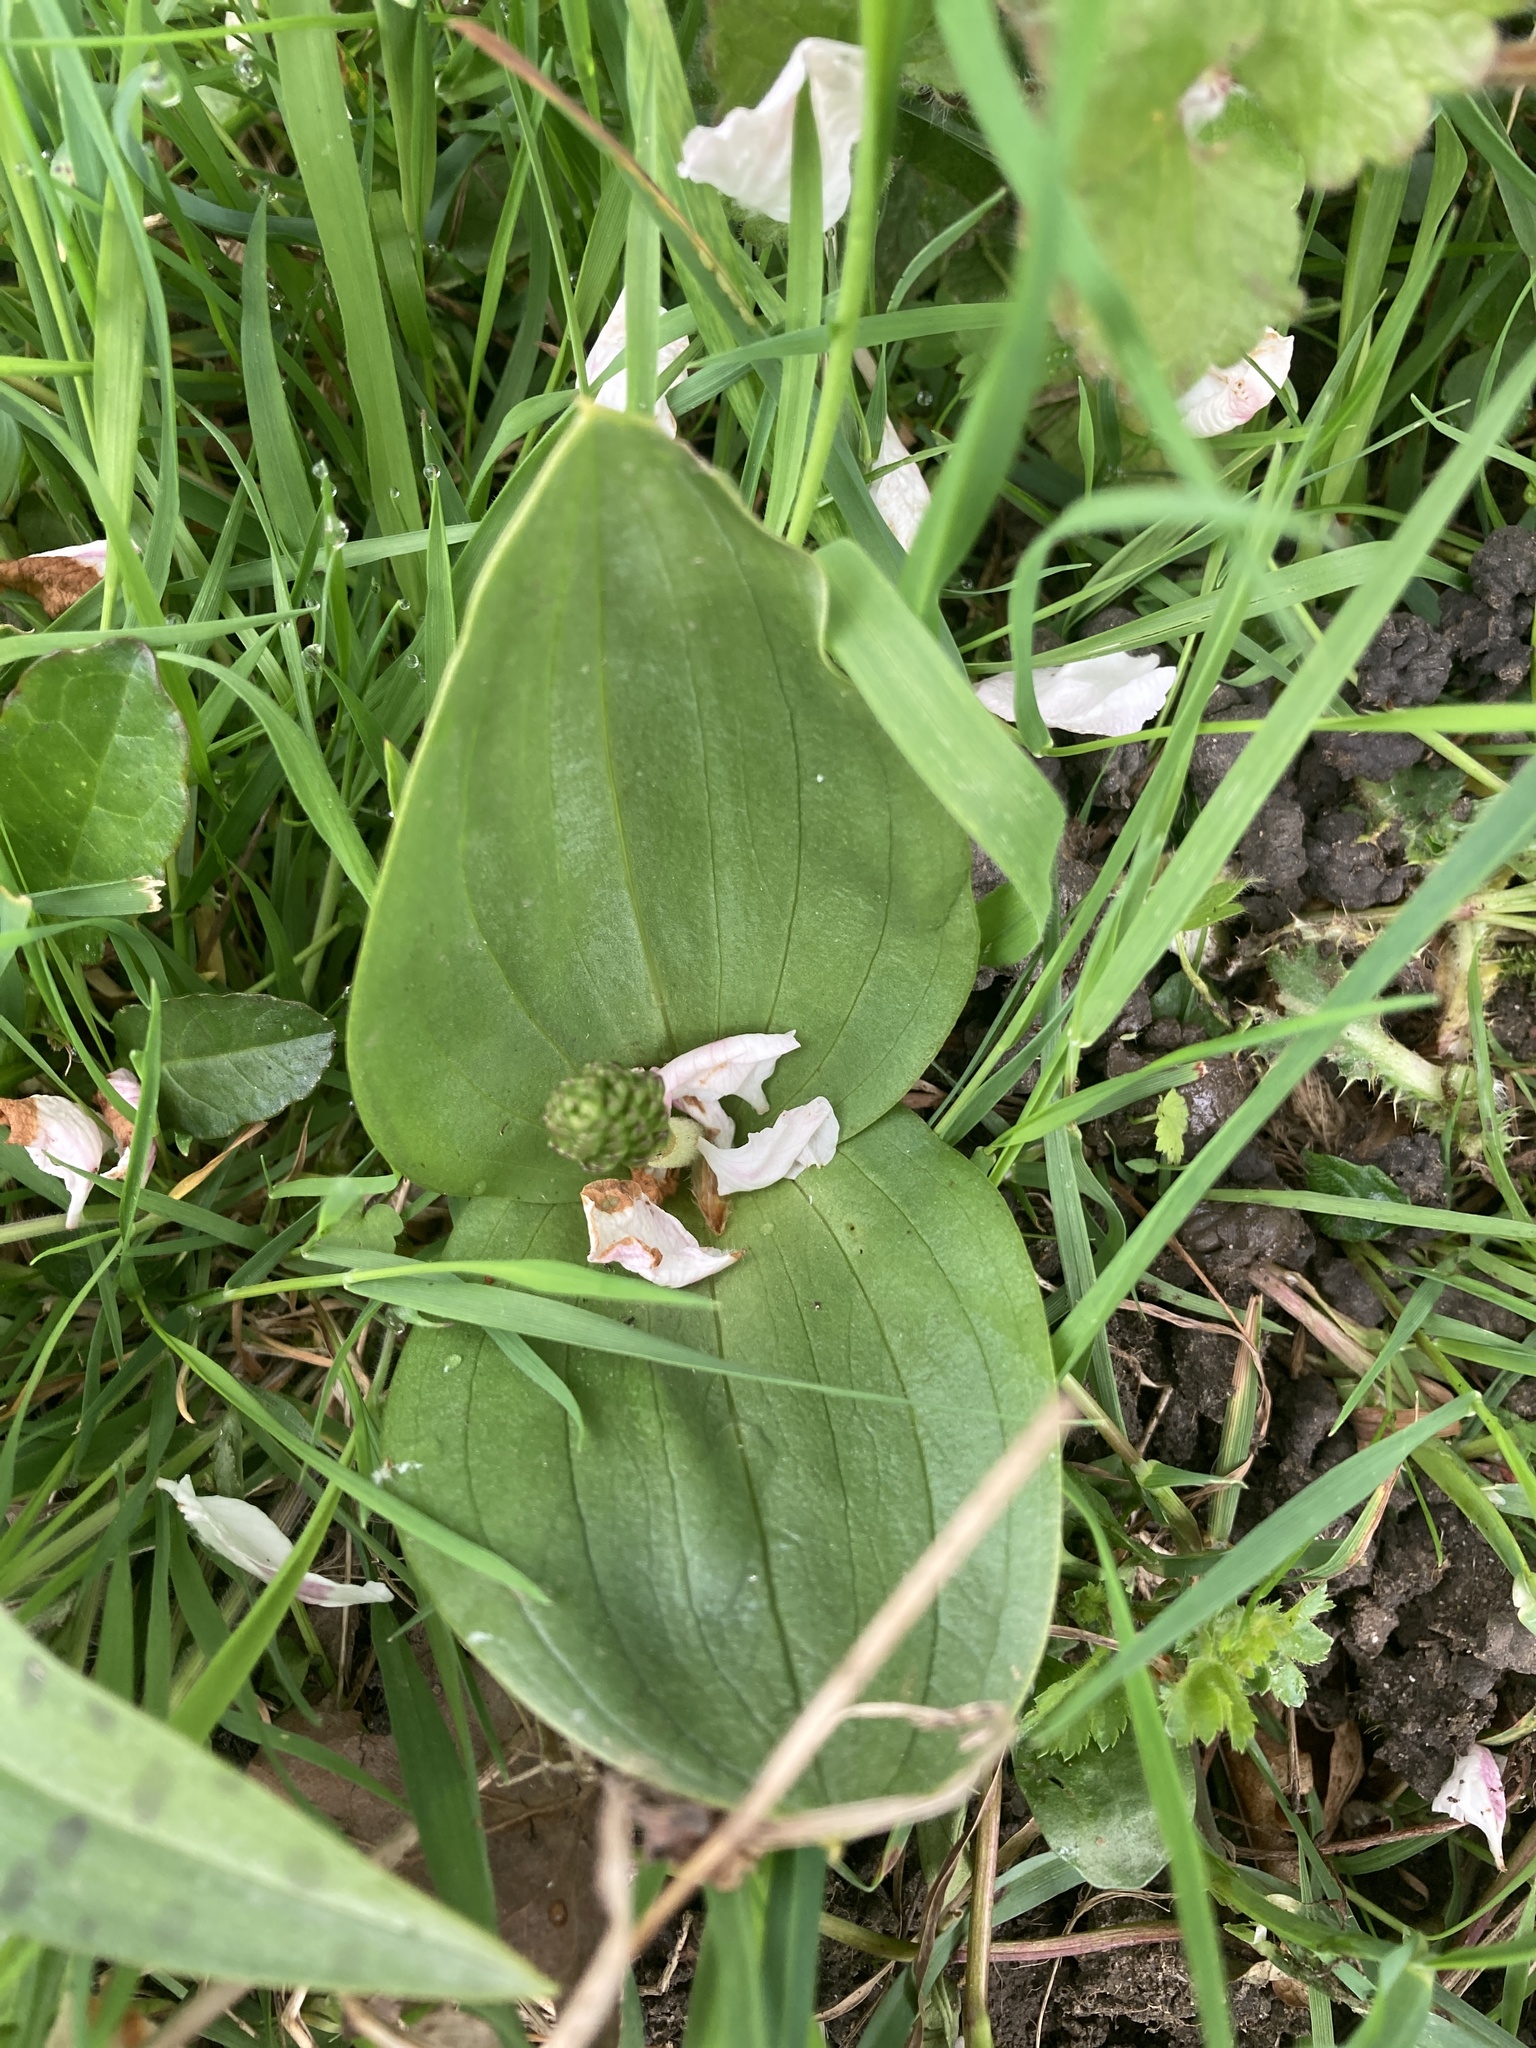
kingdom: Plantae
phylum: Tracheophyta
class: Liliopsida
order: Asparagales
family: Orchidaceae
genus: Neottia
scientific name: Neottia ovata
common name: Common twayblade
